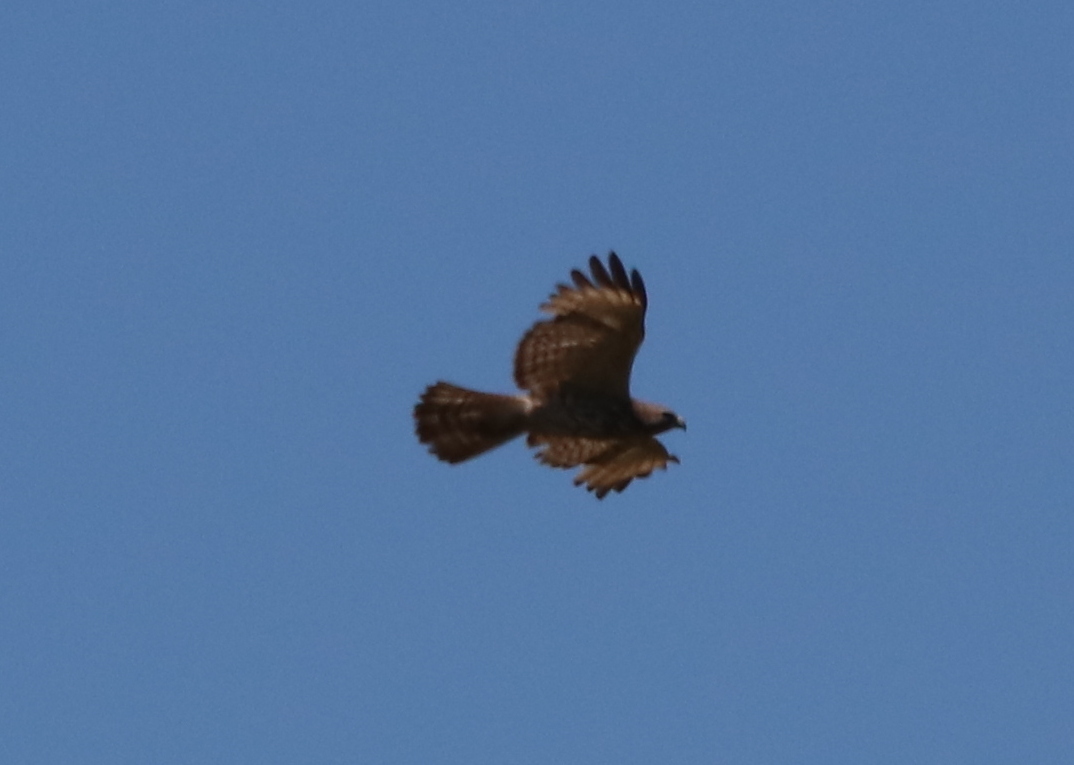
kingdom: Animalia
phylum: Chordata
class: Aves
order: Accipitriformes
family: Accipitridae
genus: Buteo
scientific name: Buteo platypterus
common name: Broad-winged hawk
